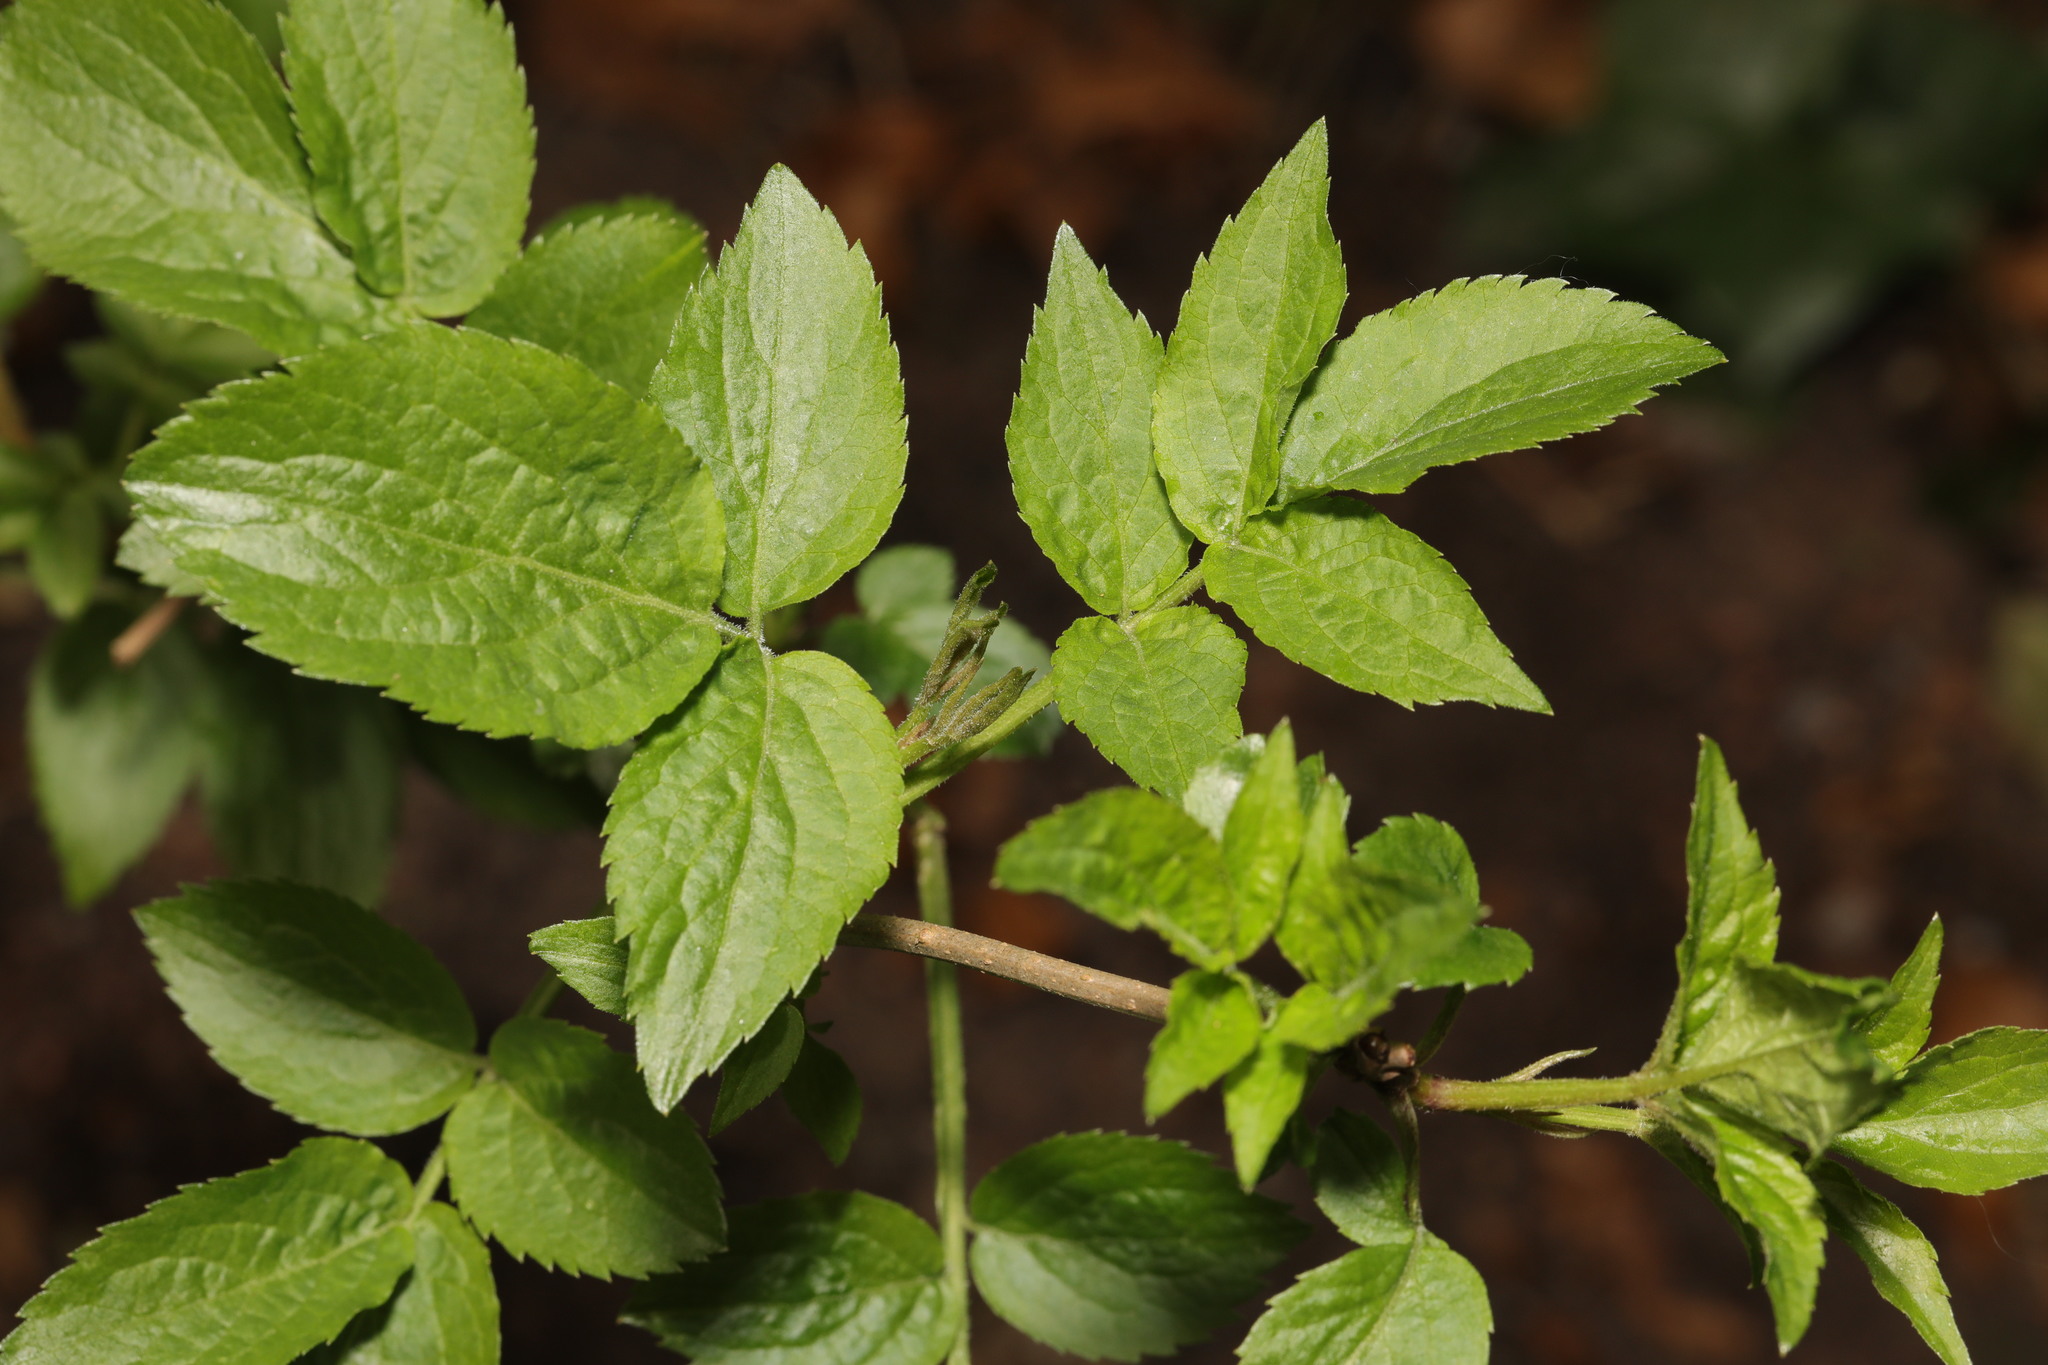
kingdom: Plantae
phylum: Tracheophyta
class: Magnoliopsida
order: Dipsacales
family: Viburnaceae
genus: Sambucus
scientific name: Sambucus nigra
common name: Elder
